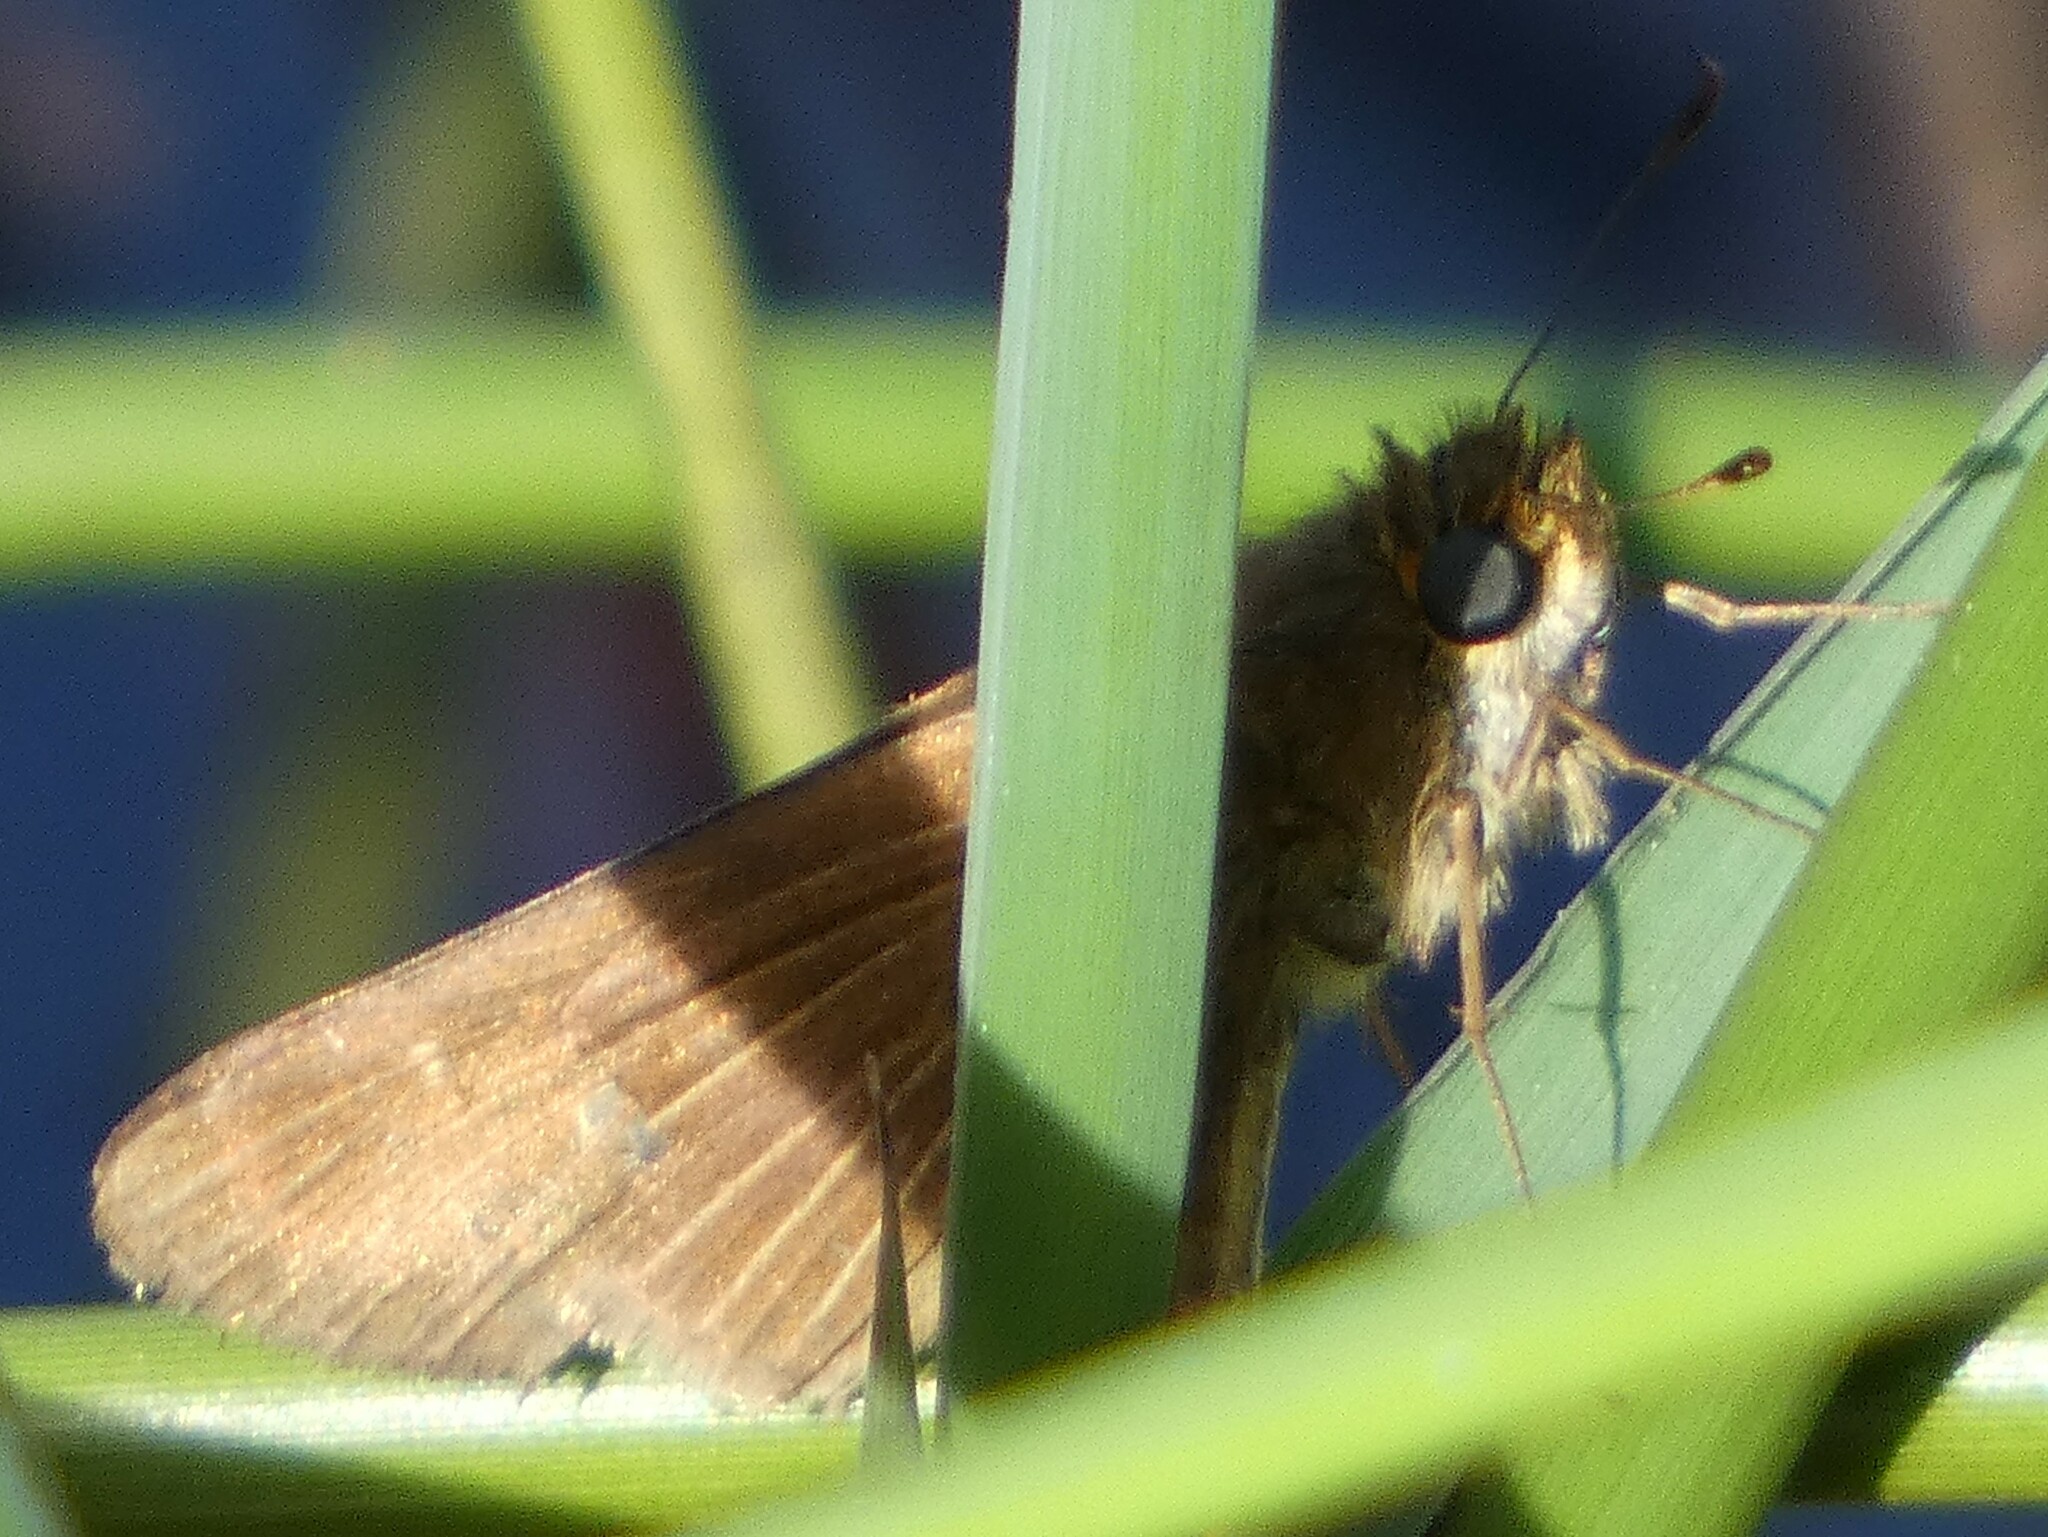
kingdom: Animalia
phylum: Arthropoda
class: Insecta
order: Lepidoptera
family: Hesperiidae
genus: Panoquina
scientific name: Panoquina ocola
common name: Ocola skipper
